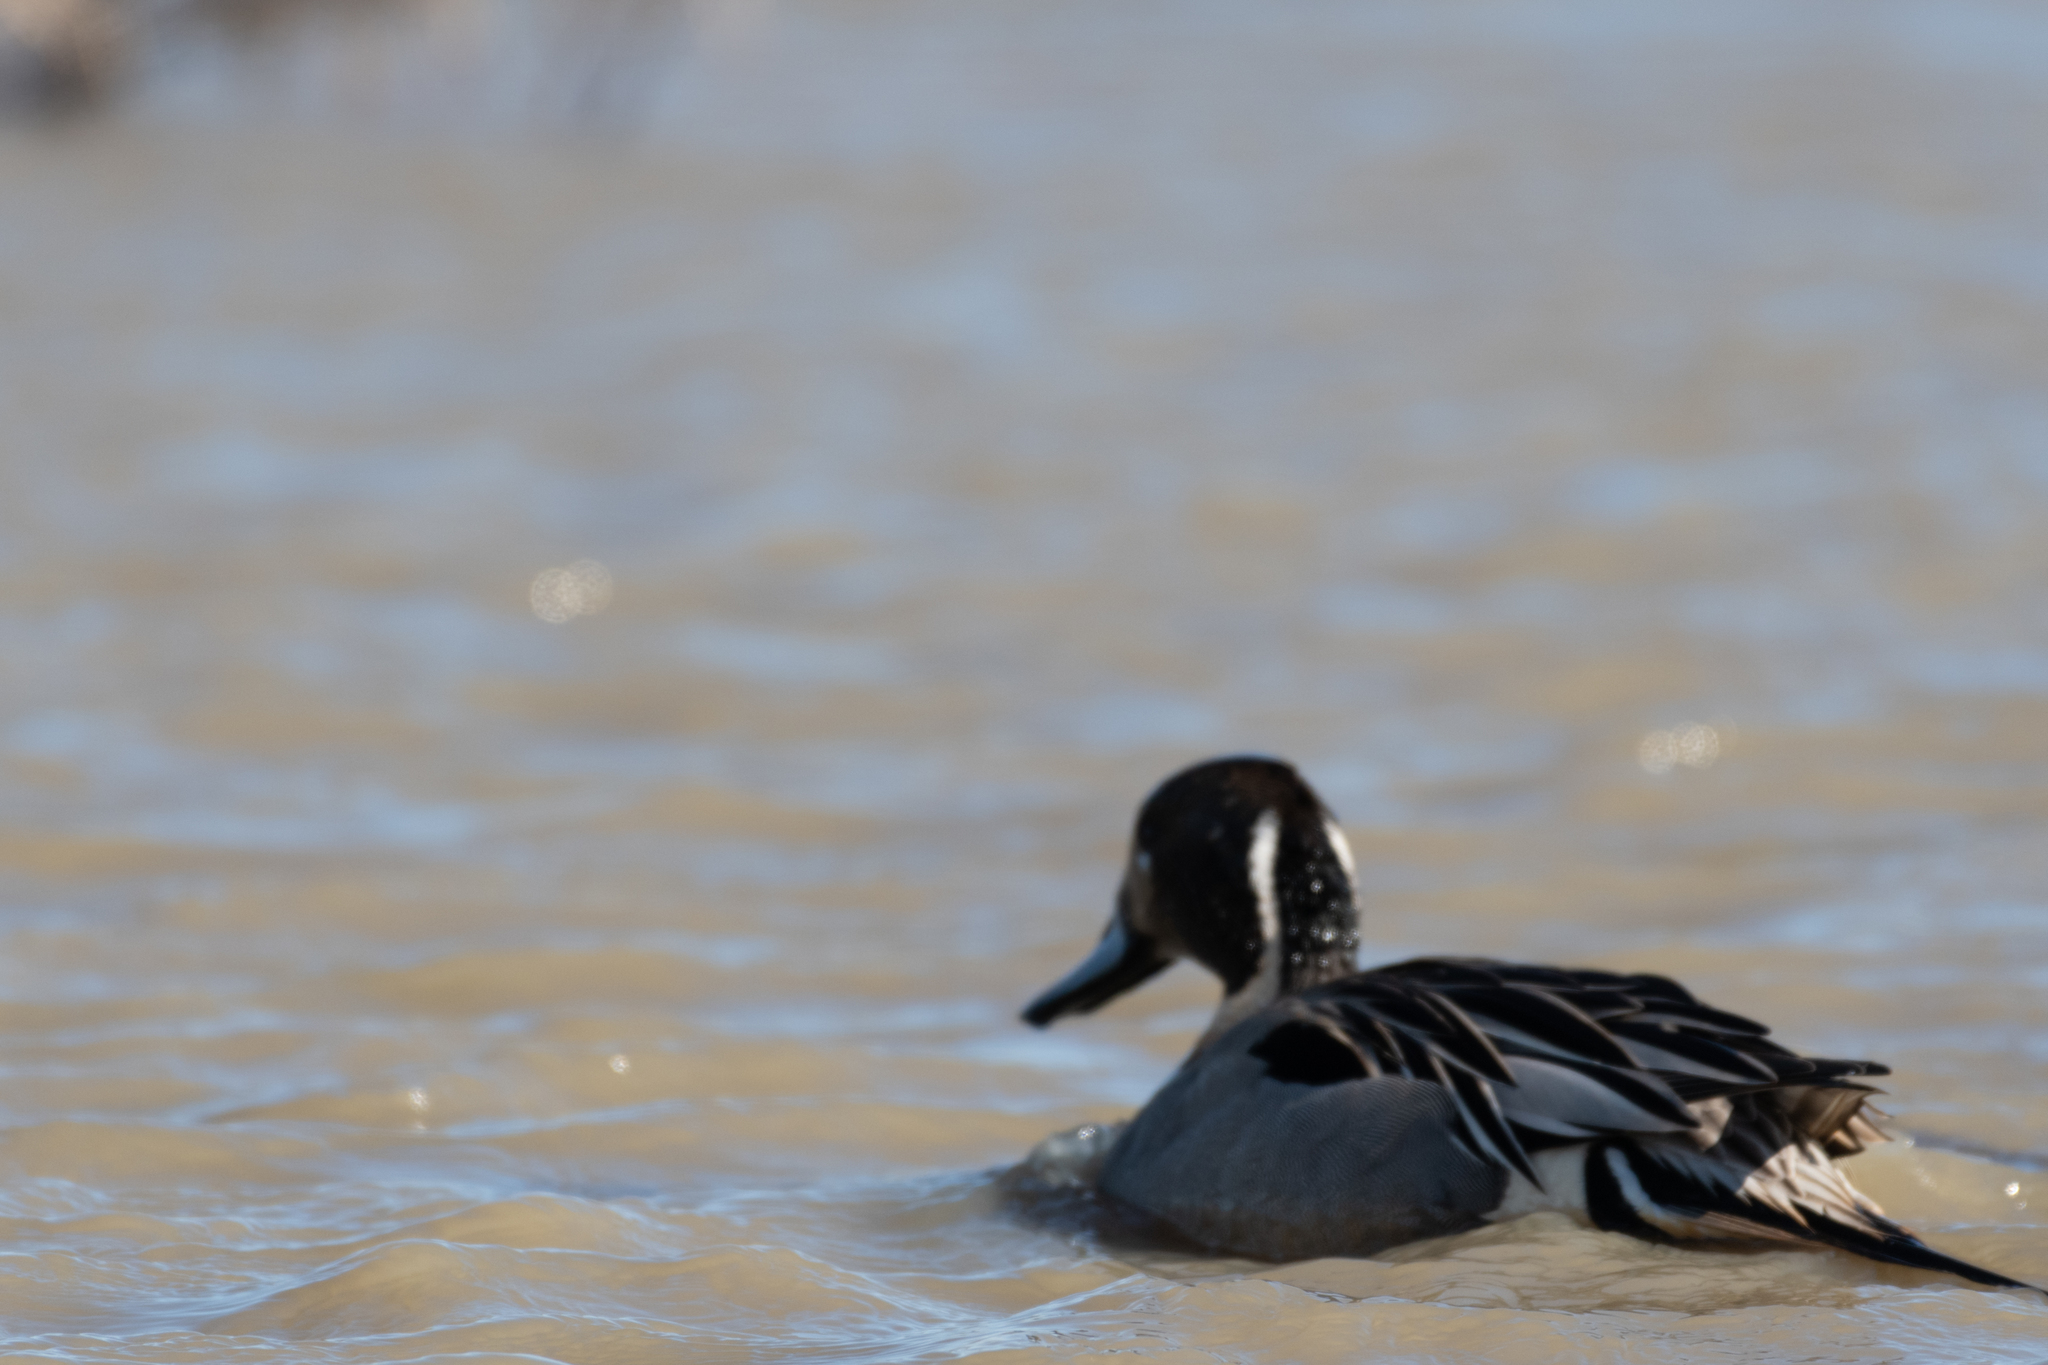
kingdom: Animalia
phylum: Chordata
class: Aves
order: Anseriformes
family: Anatidae
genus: Anas
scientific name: Anas acuta
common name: Northern pintail
